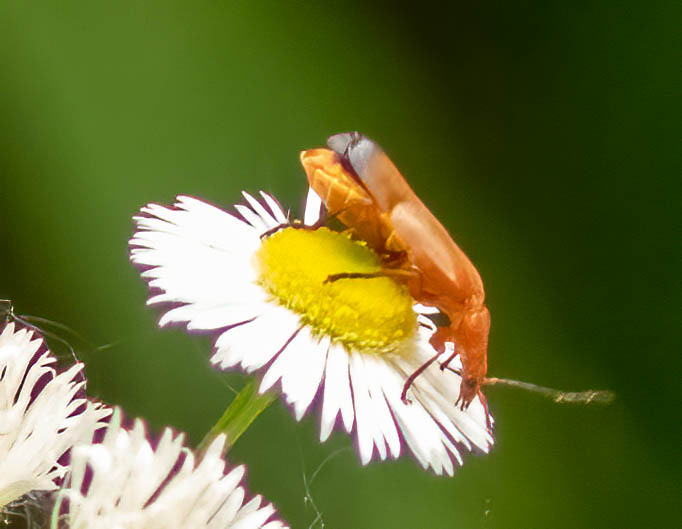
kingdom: Animalia
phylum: Arthropoda
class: Insecta
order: Coleoptera
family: Cantharidae
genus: Rhagonycha
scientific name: Rhagonycha fulva
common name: Common red soldier beetle
